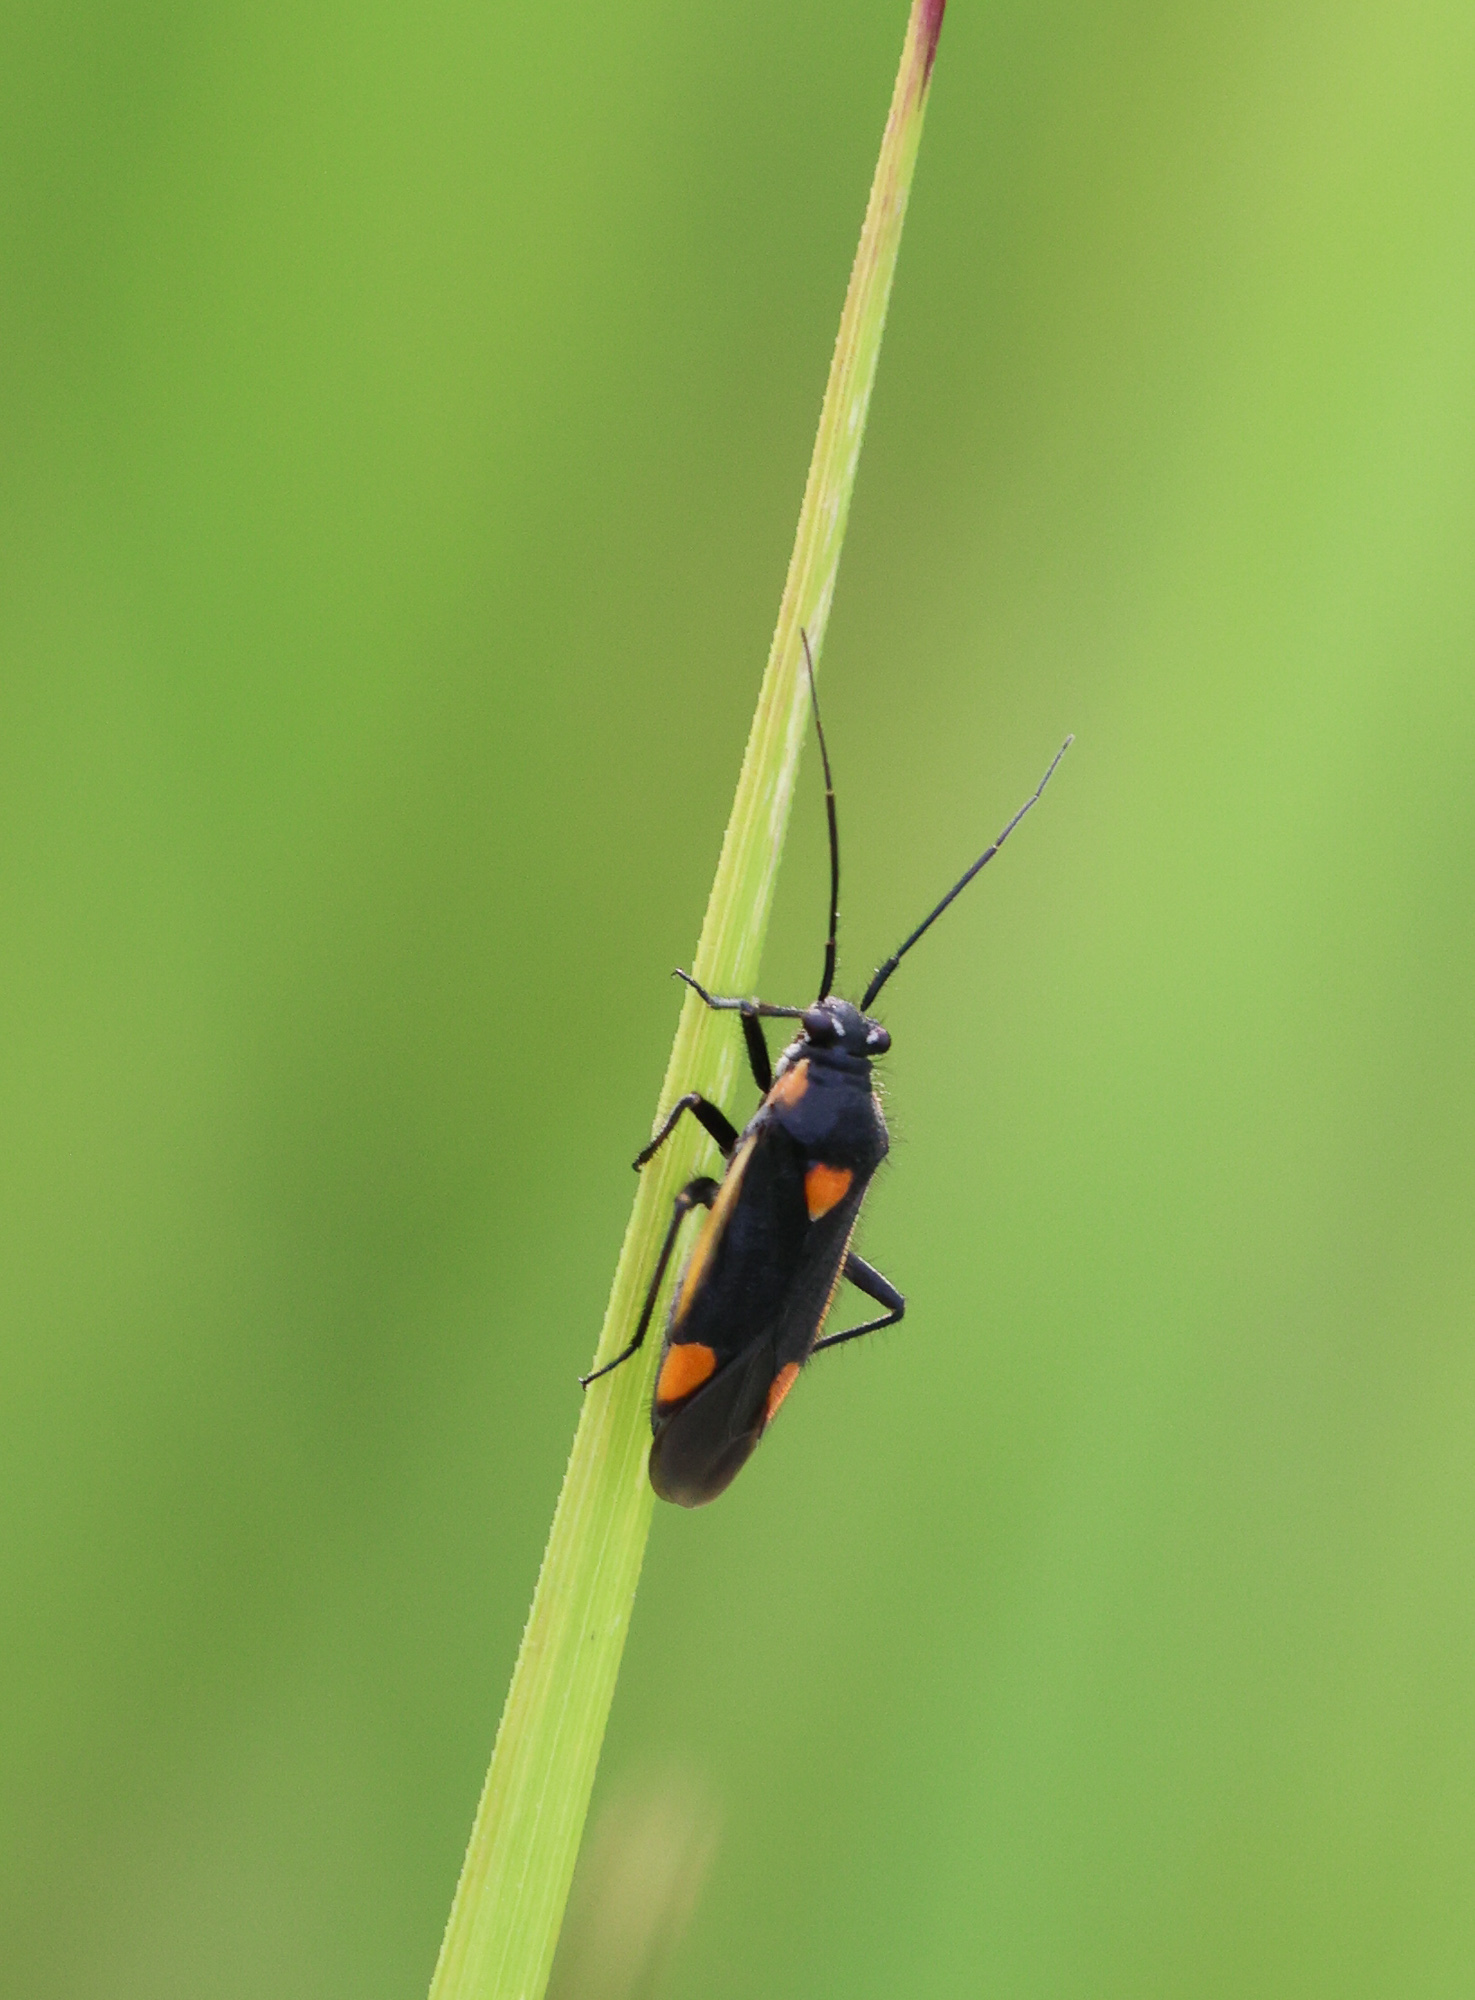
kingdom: Animalia
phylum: Arthropoda
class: Insecta
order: Hemiptera
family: Miridae
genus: Capsodes
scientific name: Capsodes gothicus
